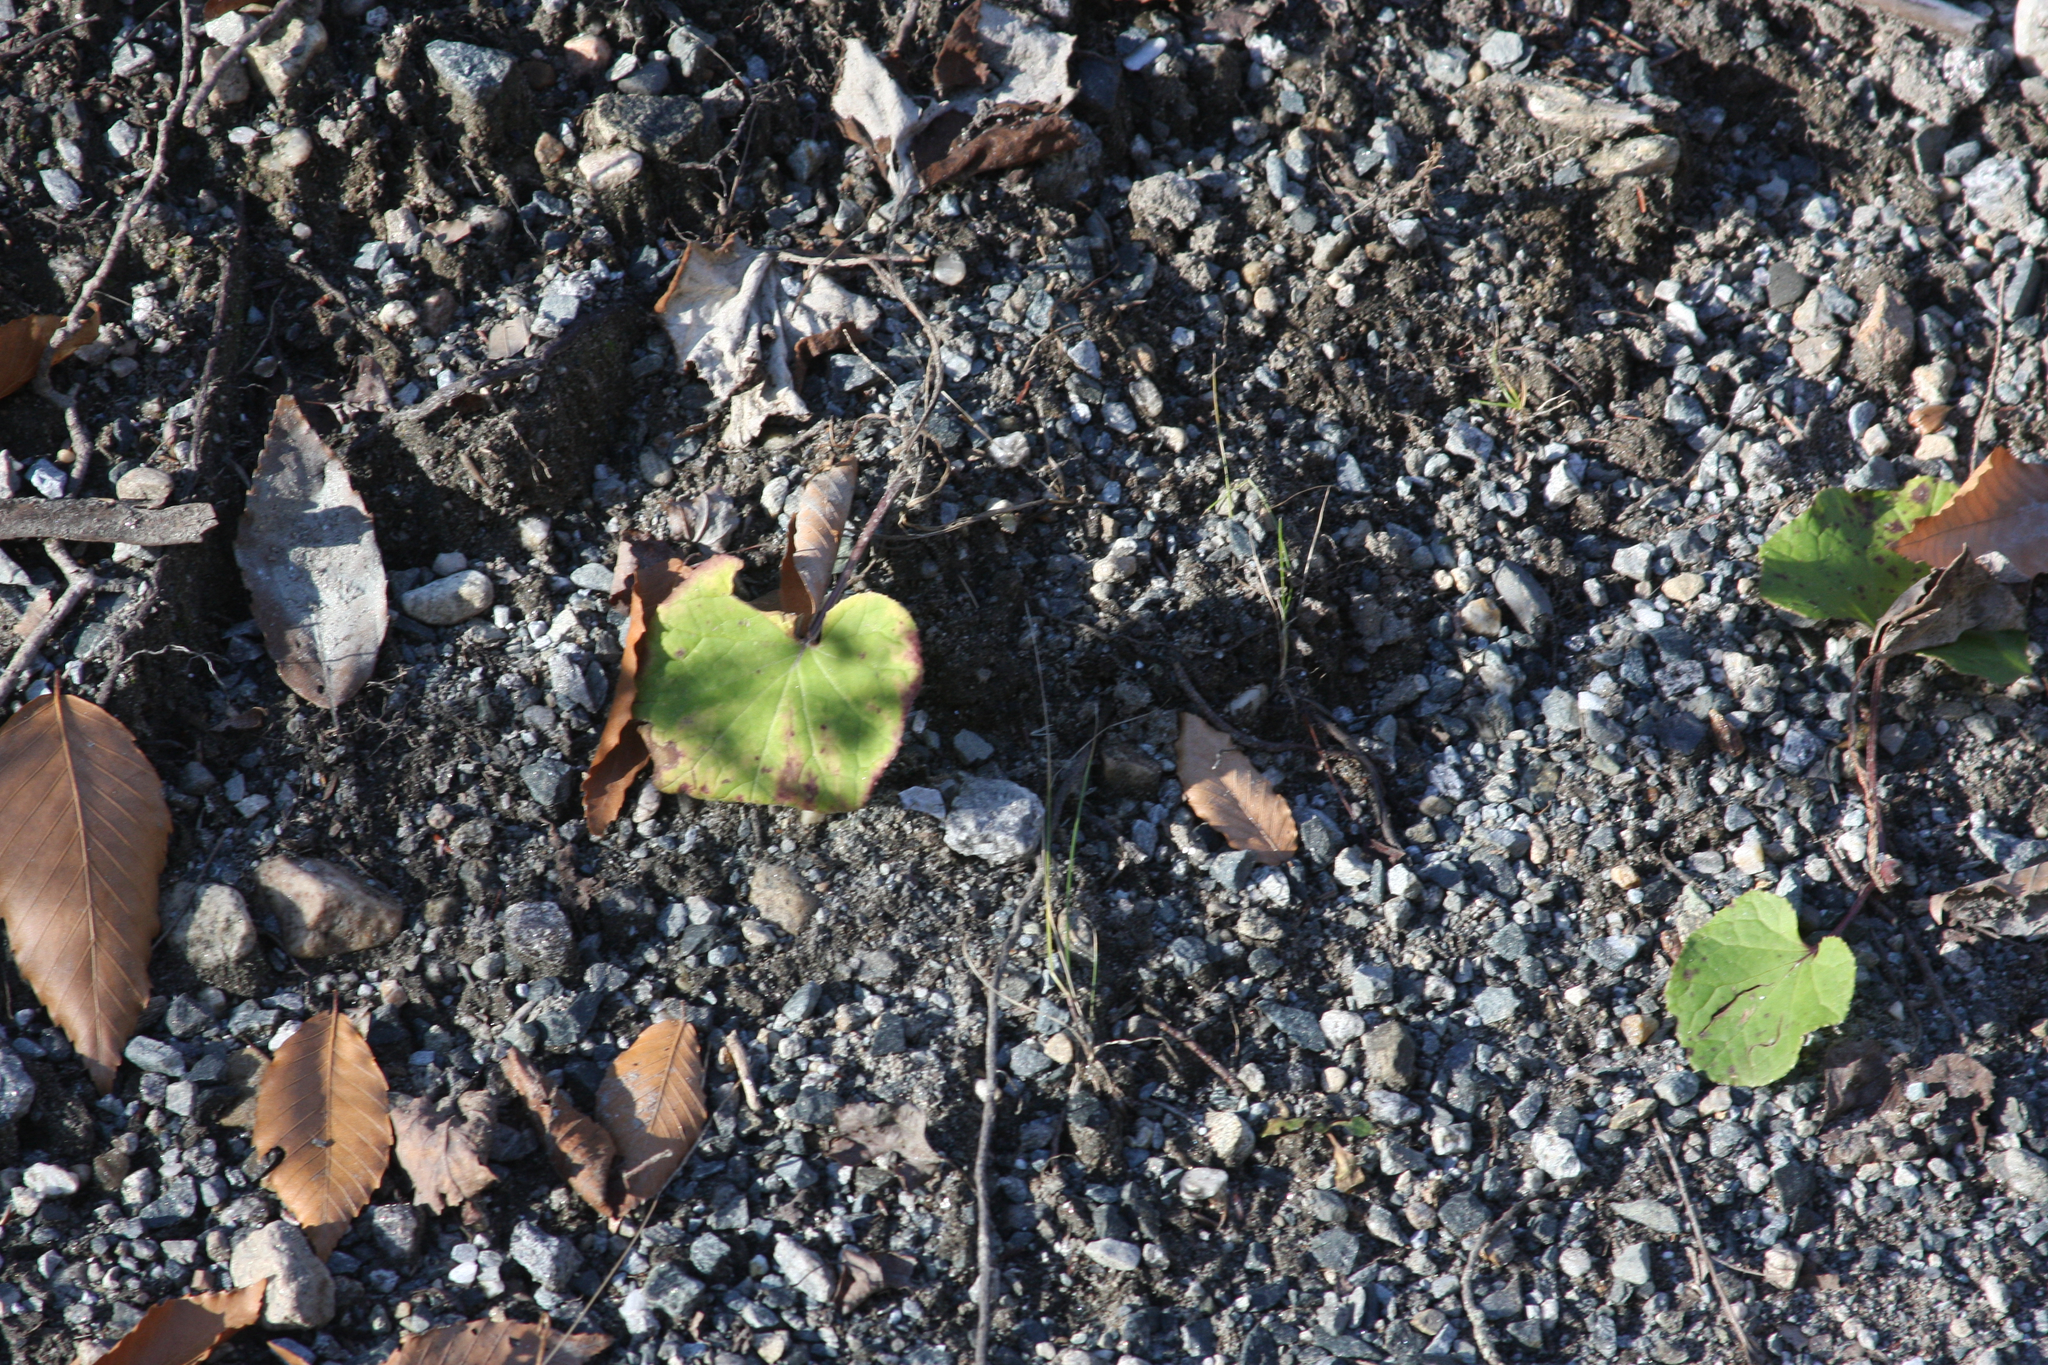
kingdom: Plantae
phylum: Tracheophyta
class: Magnoliopsida
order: Asterales
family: Asteraceae
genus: Tussilago
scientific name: Tussilago farfara
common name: Coltsfoot
